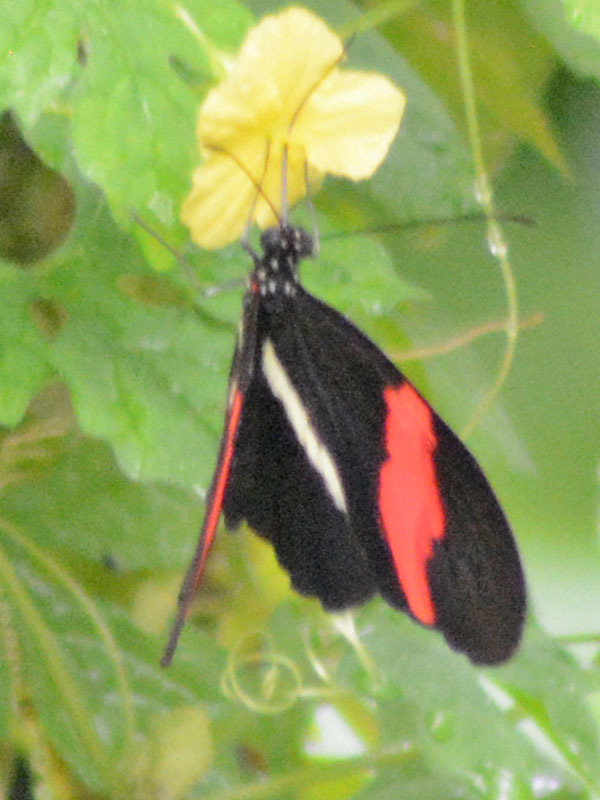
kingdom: Animalia
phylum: Arthropoda
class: Insecta
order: Lepidoptera
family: Nymphalidae
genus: Heliconius
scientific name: Heliconius erato
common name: Common patch longwing
